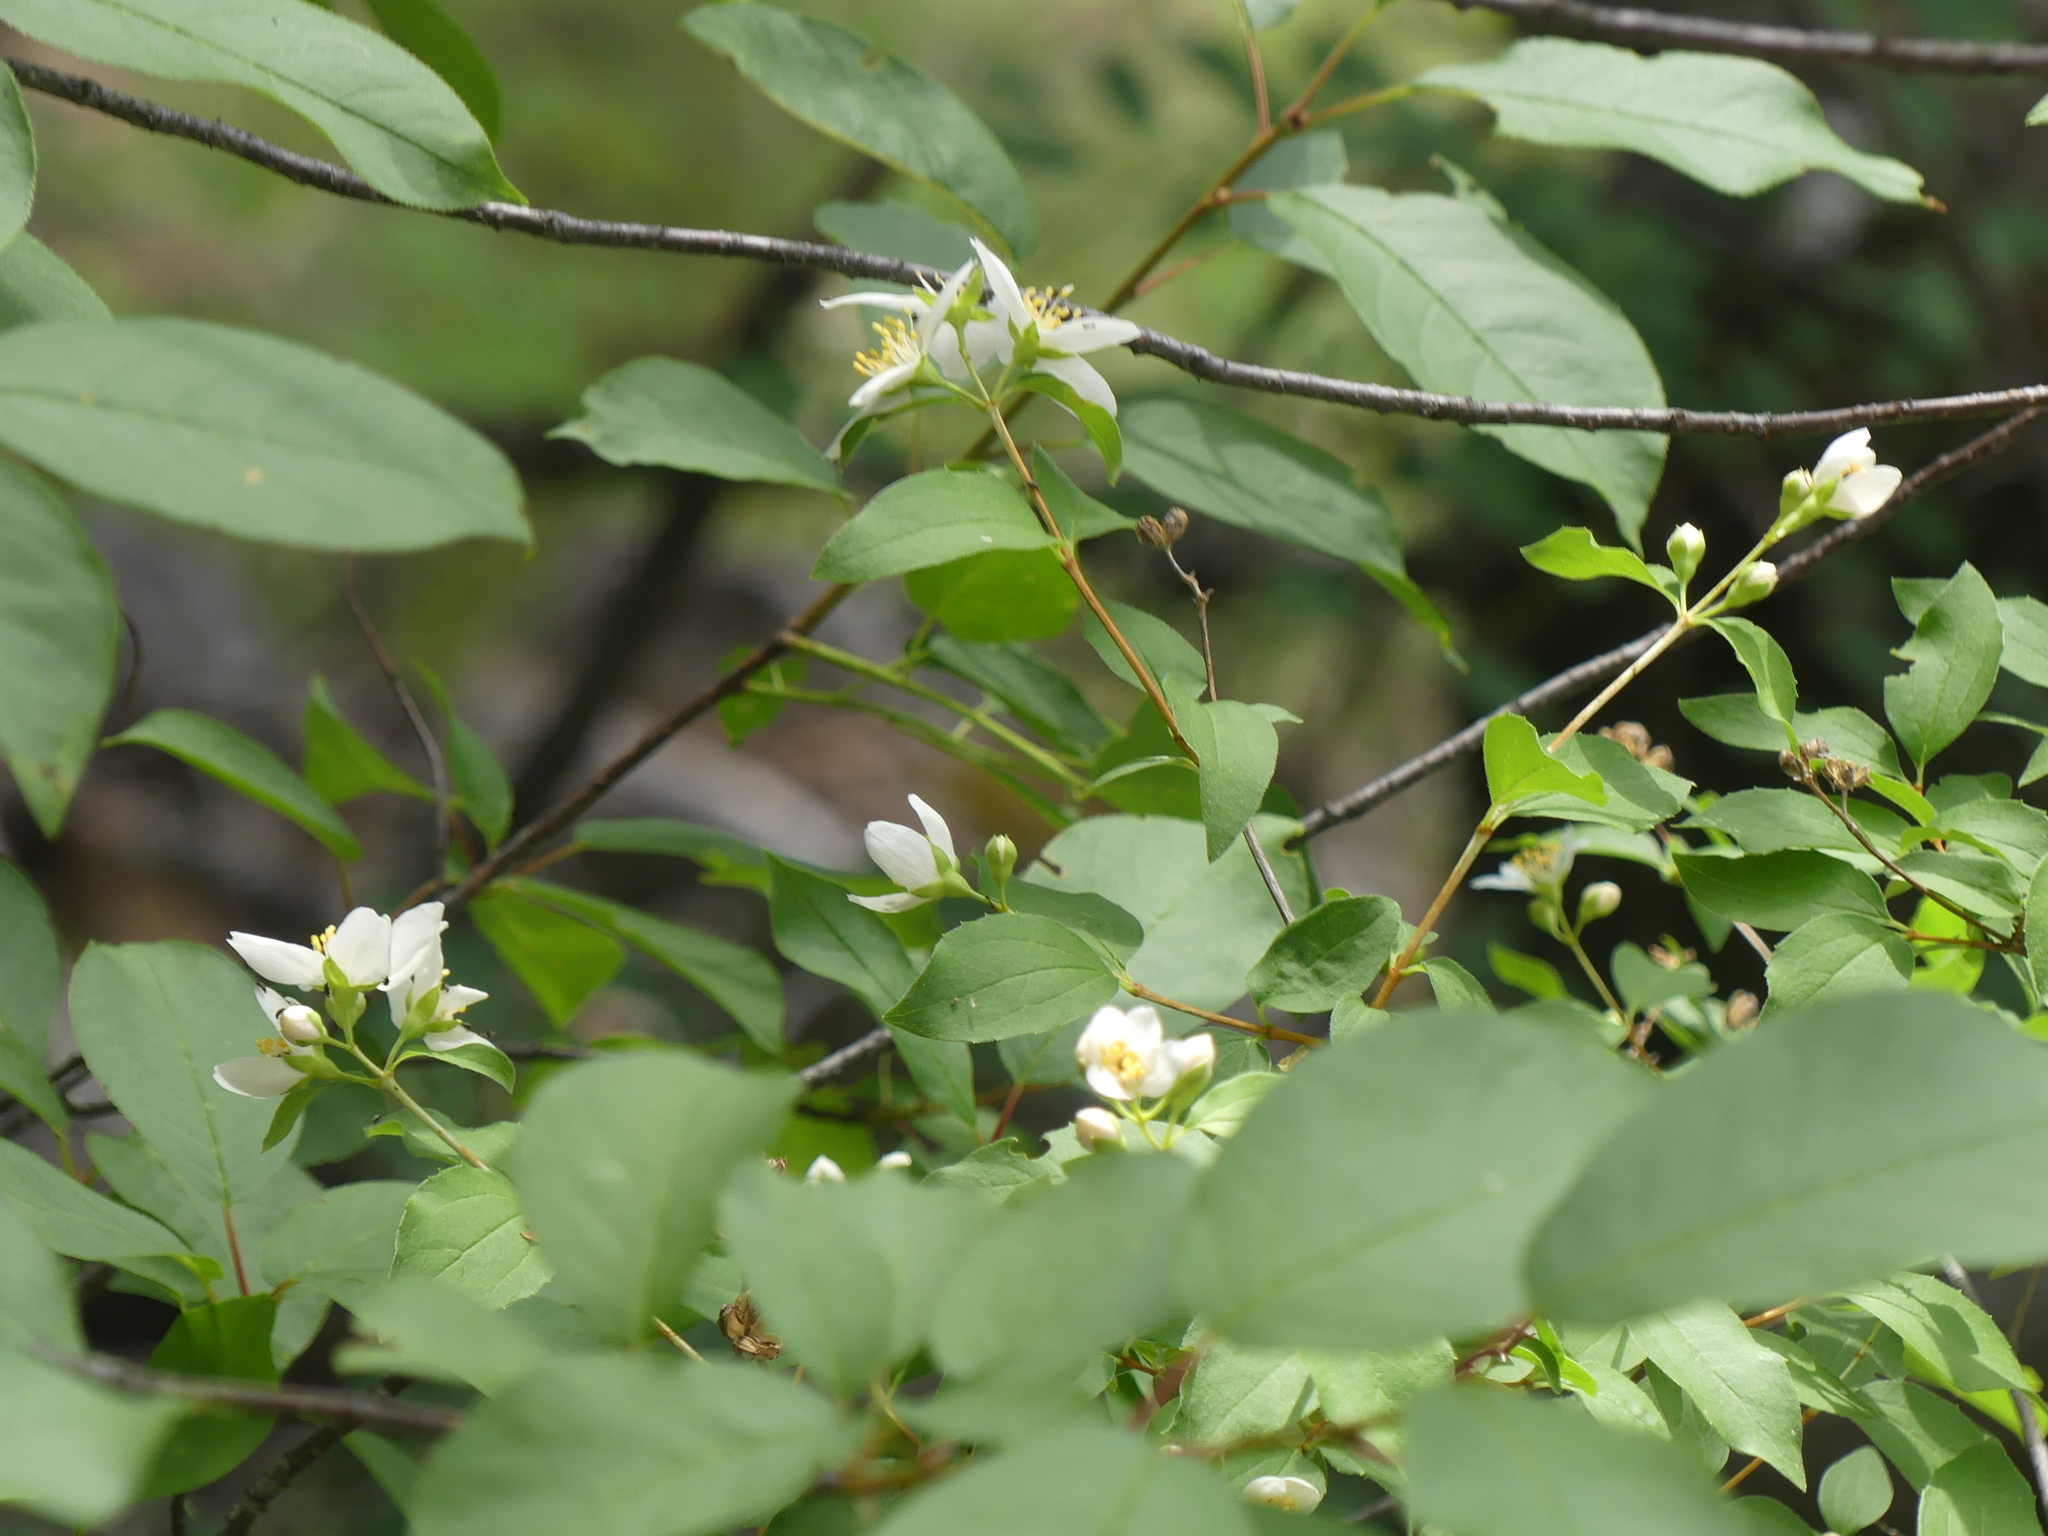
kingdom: Plantae
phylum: Tracheophyta
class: Magnoliopsida
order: Cornales
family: Hydrangeaceae
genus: Philadelphus
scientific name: Philadelphus lewisii
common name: Lewis's mock orange
